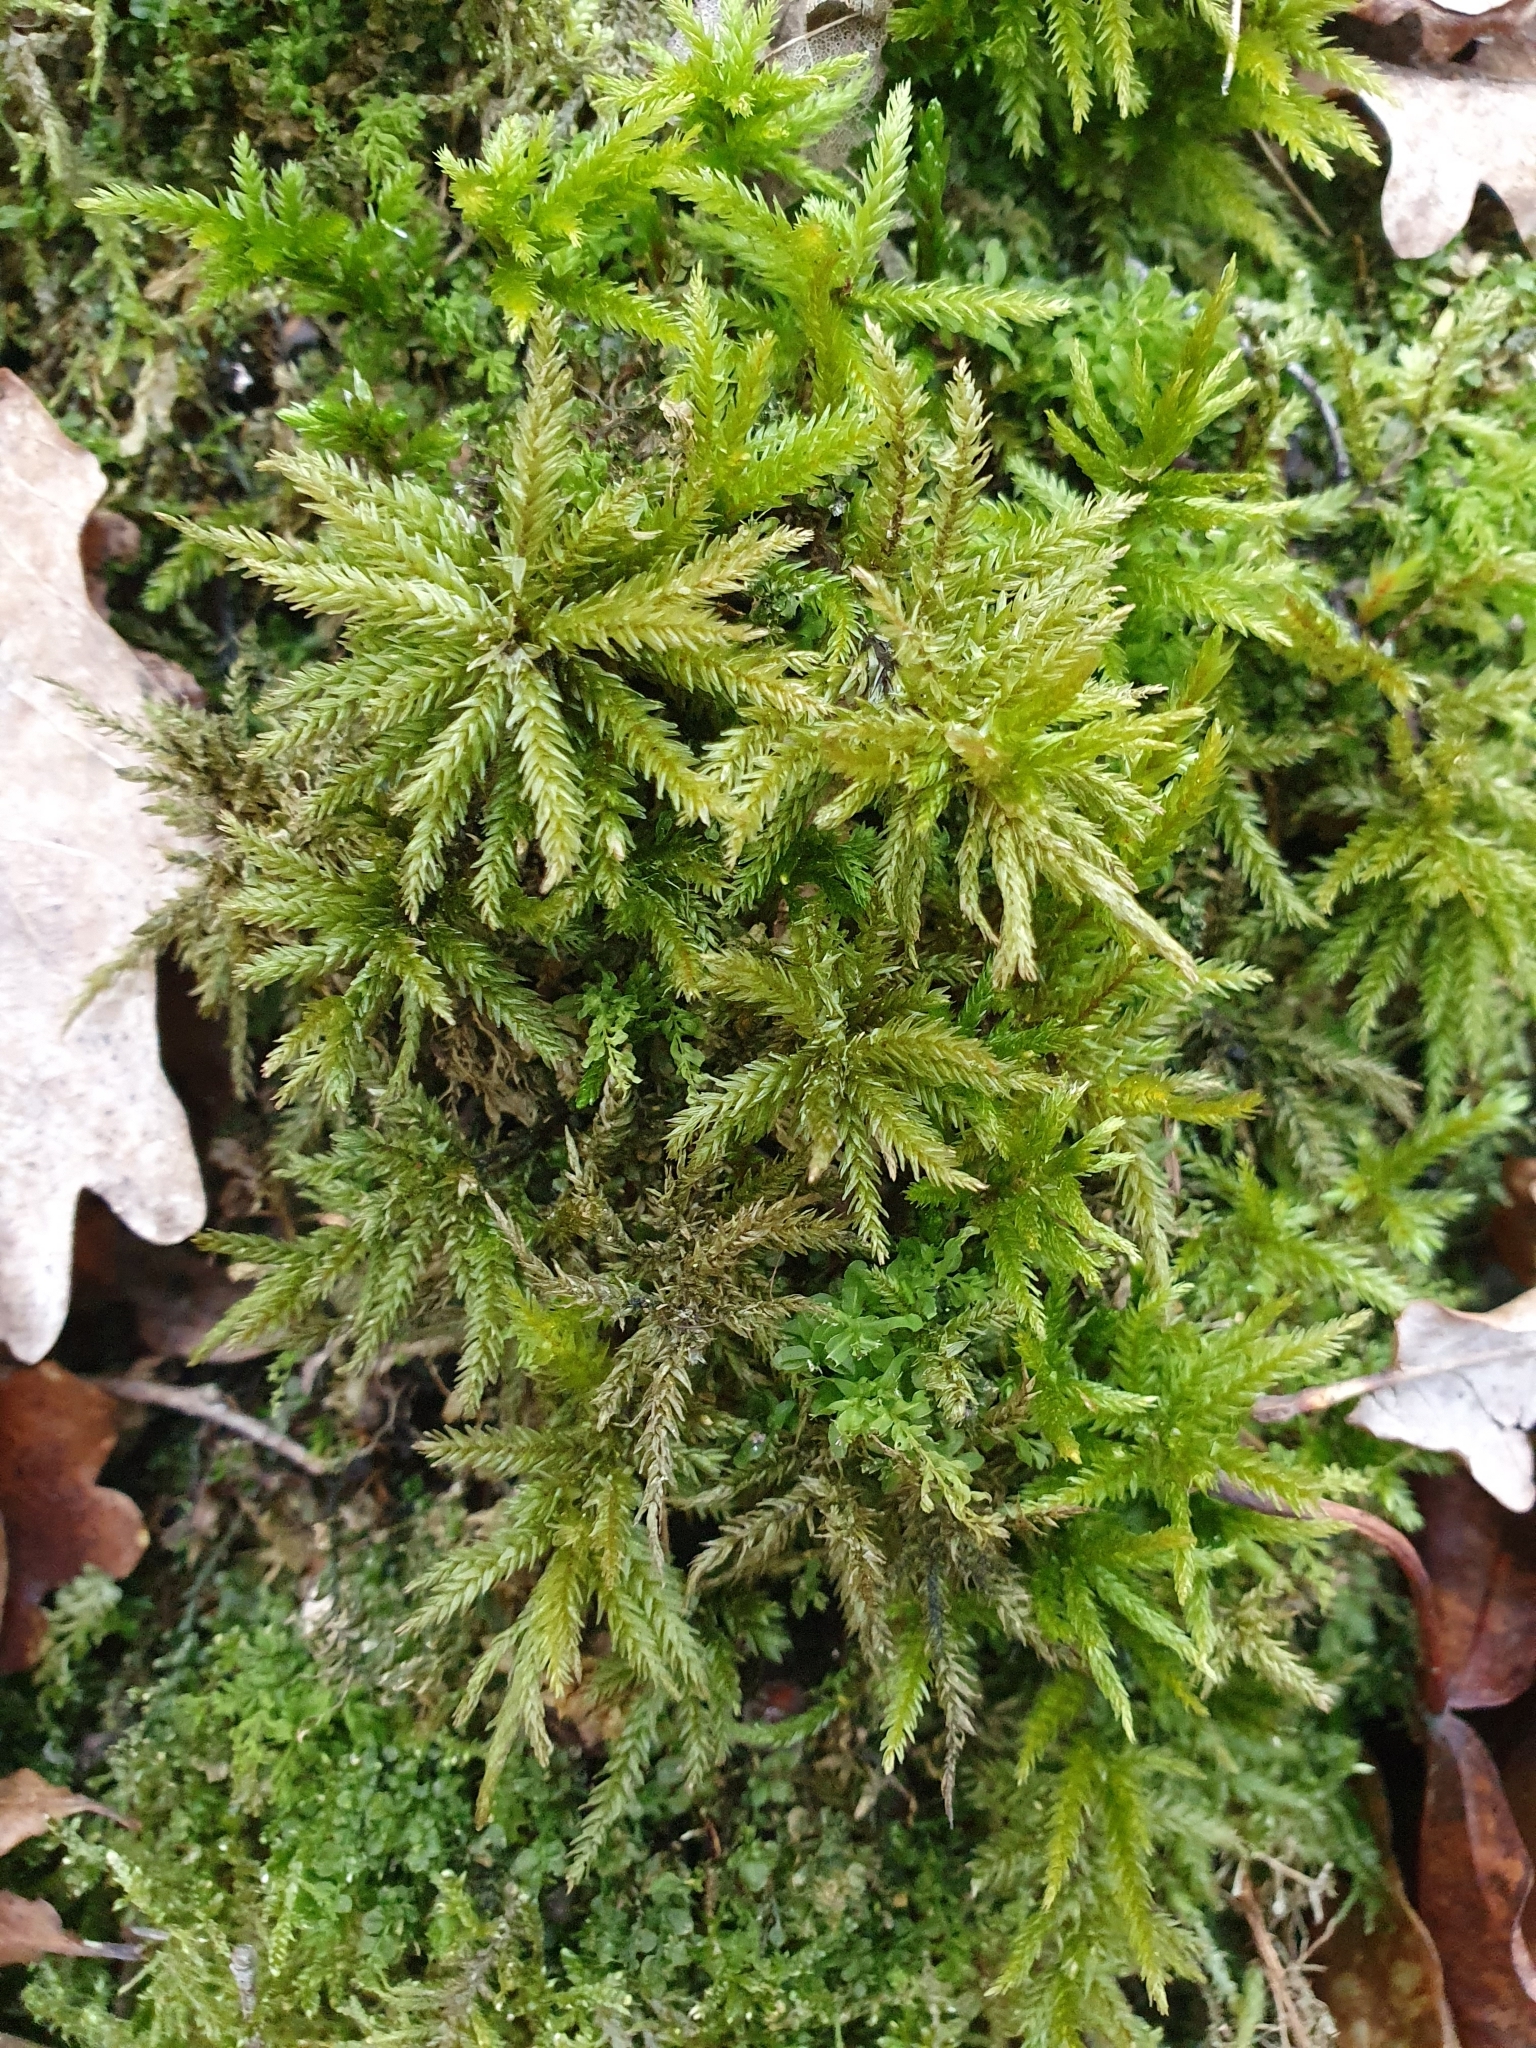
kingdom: Plantae
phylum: Bryophyta
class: Bryopsida
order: Hypnales
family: Climaciaceae
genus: Climacium
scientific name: Climacium dendroides
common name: Northern tree moss
